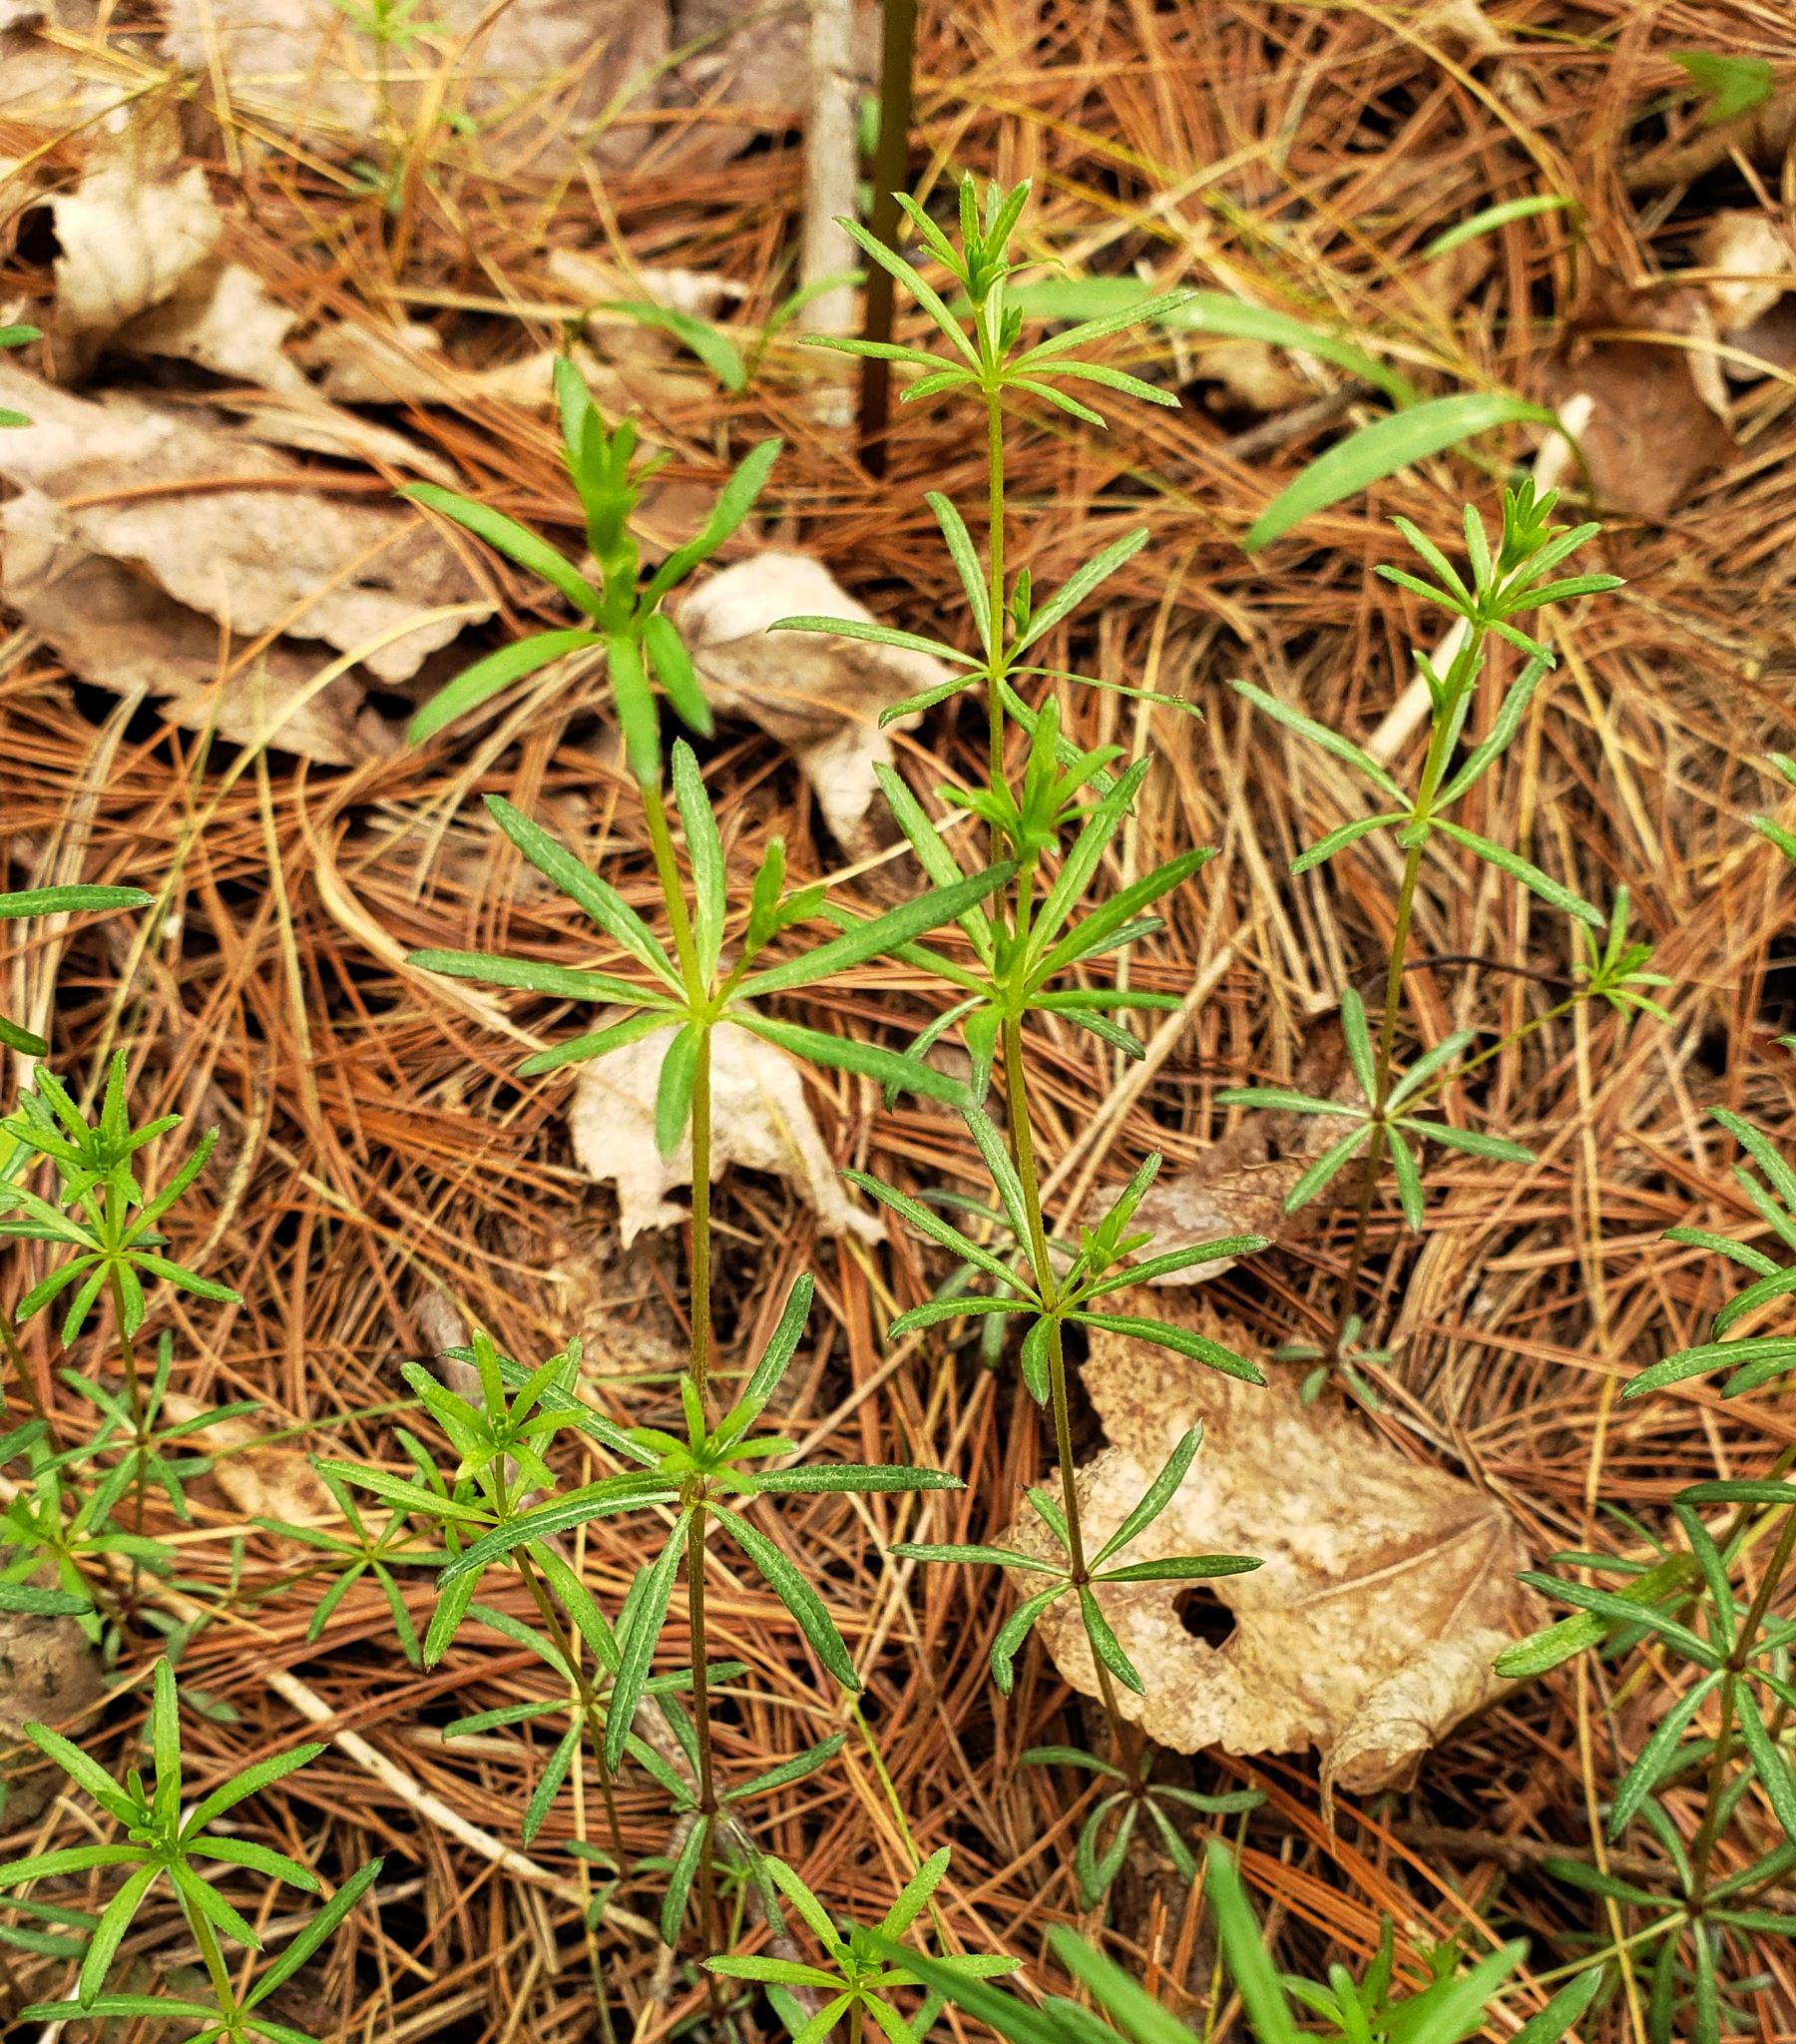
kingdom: Plantae
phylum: Tracheophyta
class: Magnoliopsida
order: Gentianales
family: Rubiaceae
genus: Galium
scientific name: Galium concinnum
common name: Shining bedstraw
